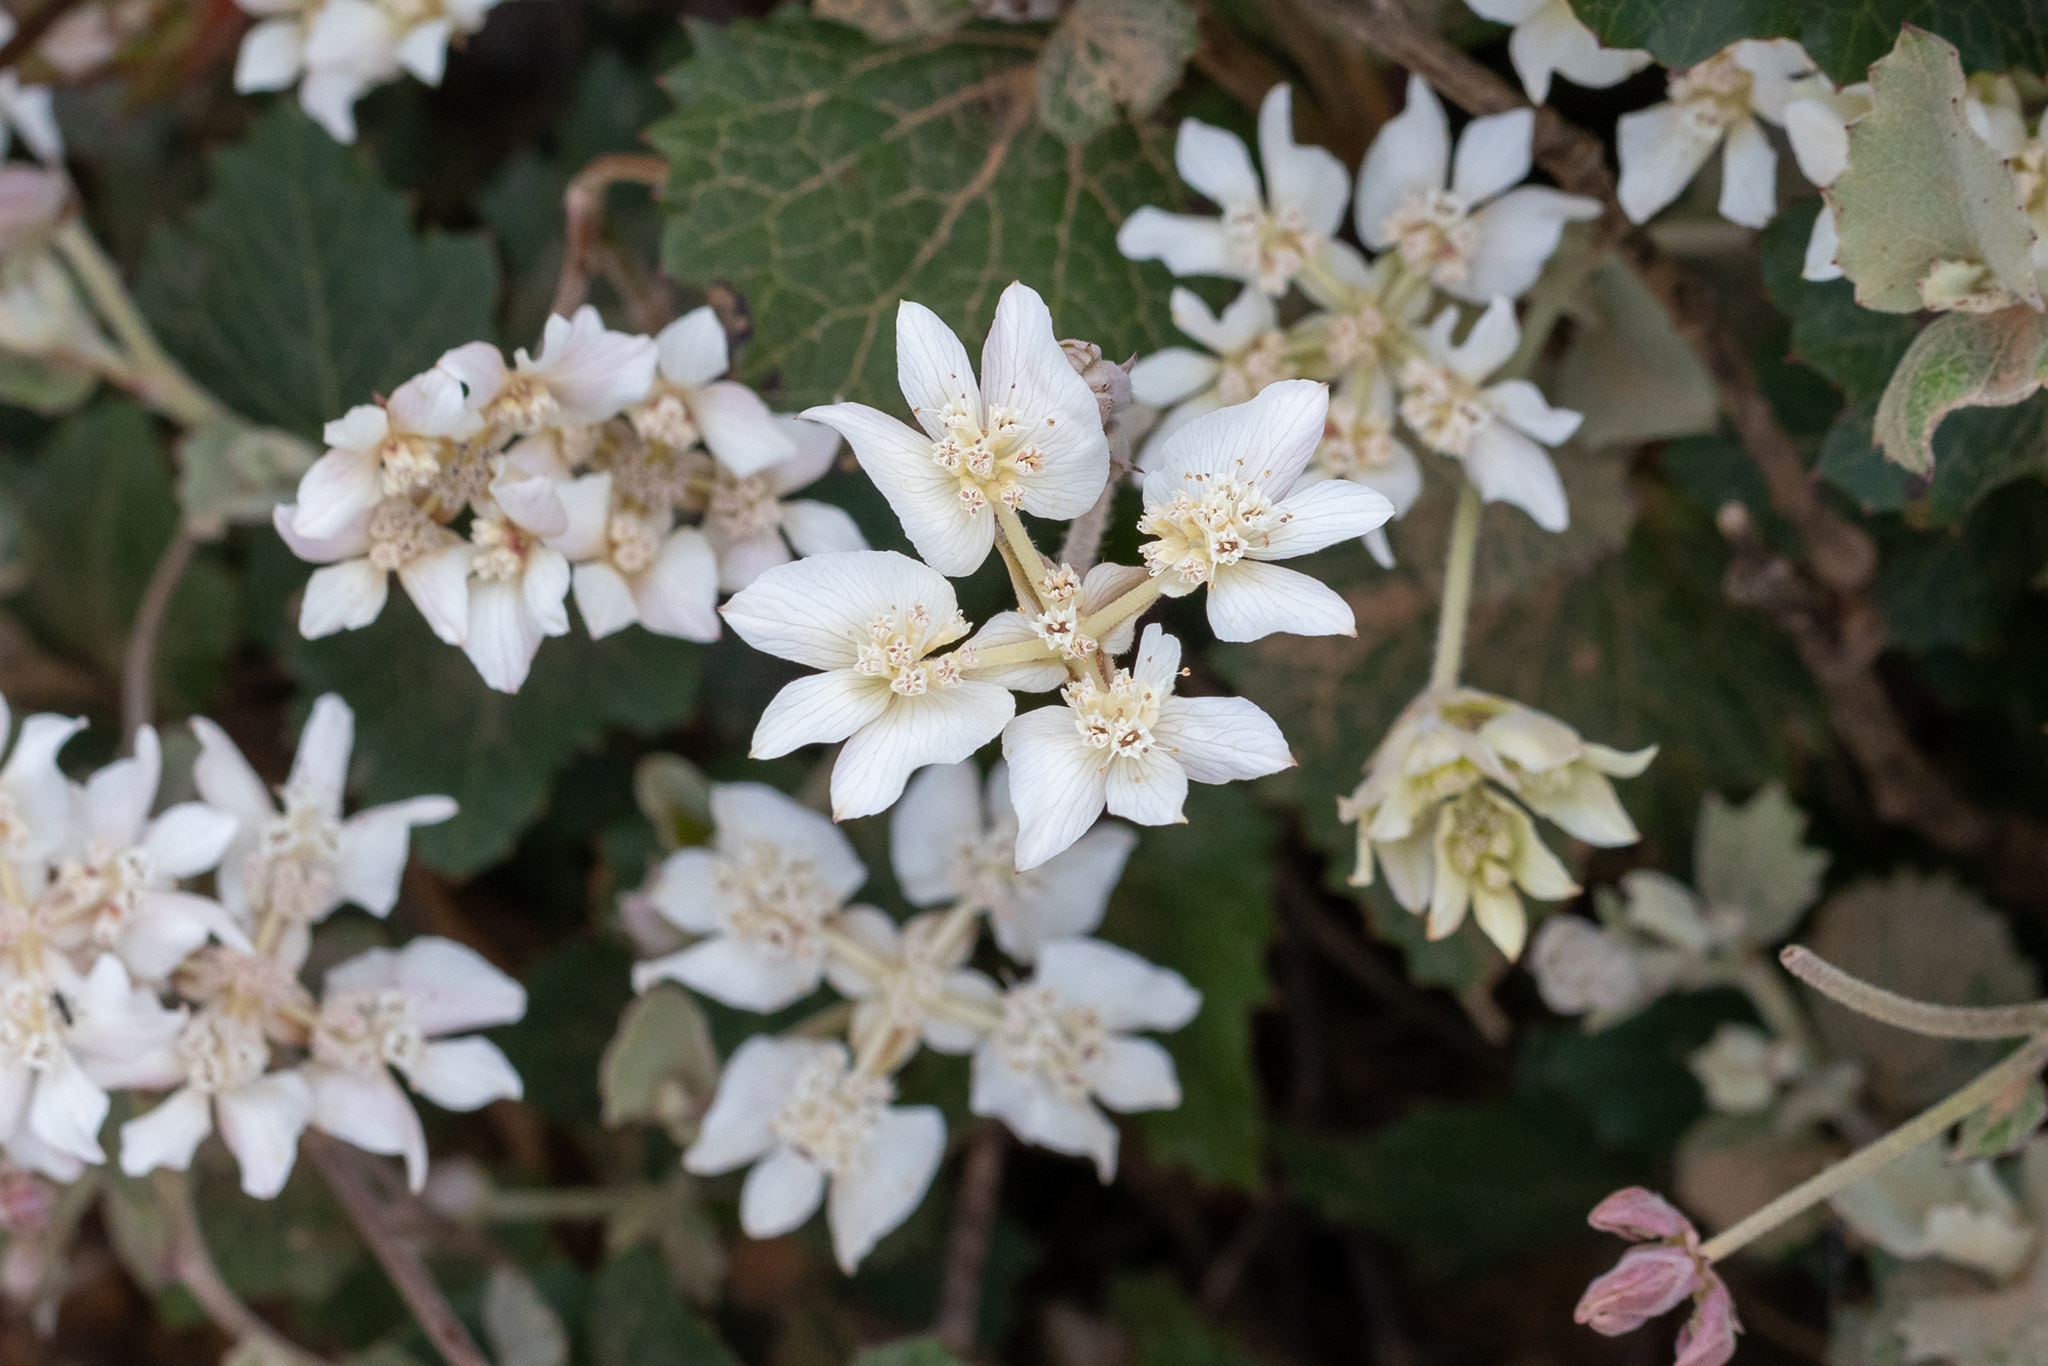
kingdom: Plantae
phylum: Tracheophyta
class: Magnoliopsida
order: Apiales
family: Apiaceae
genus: Xanthosia
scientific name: Xanthosia rotundifolia
